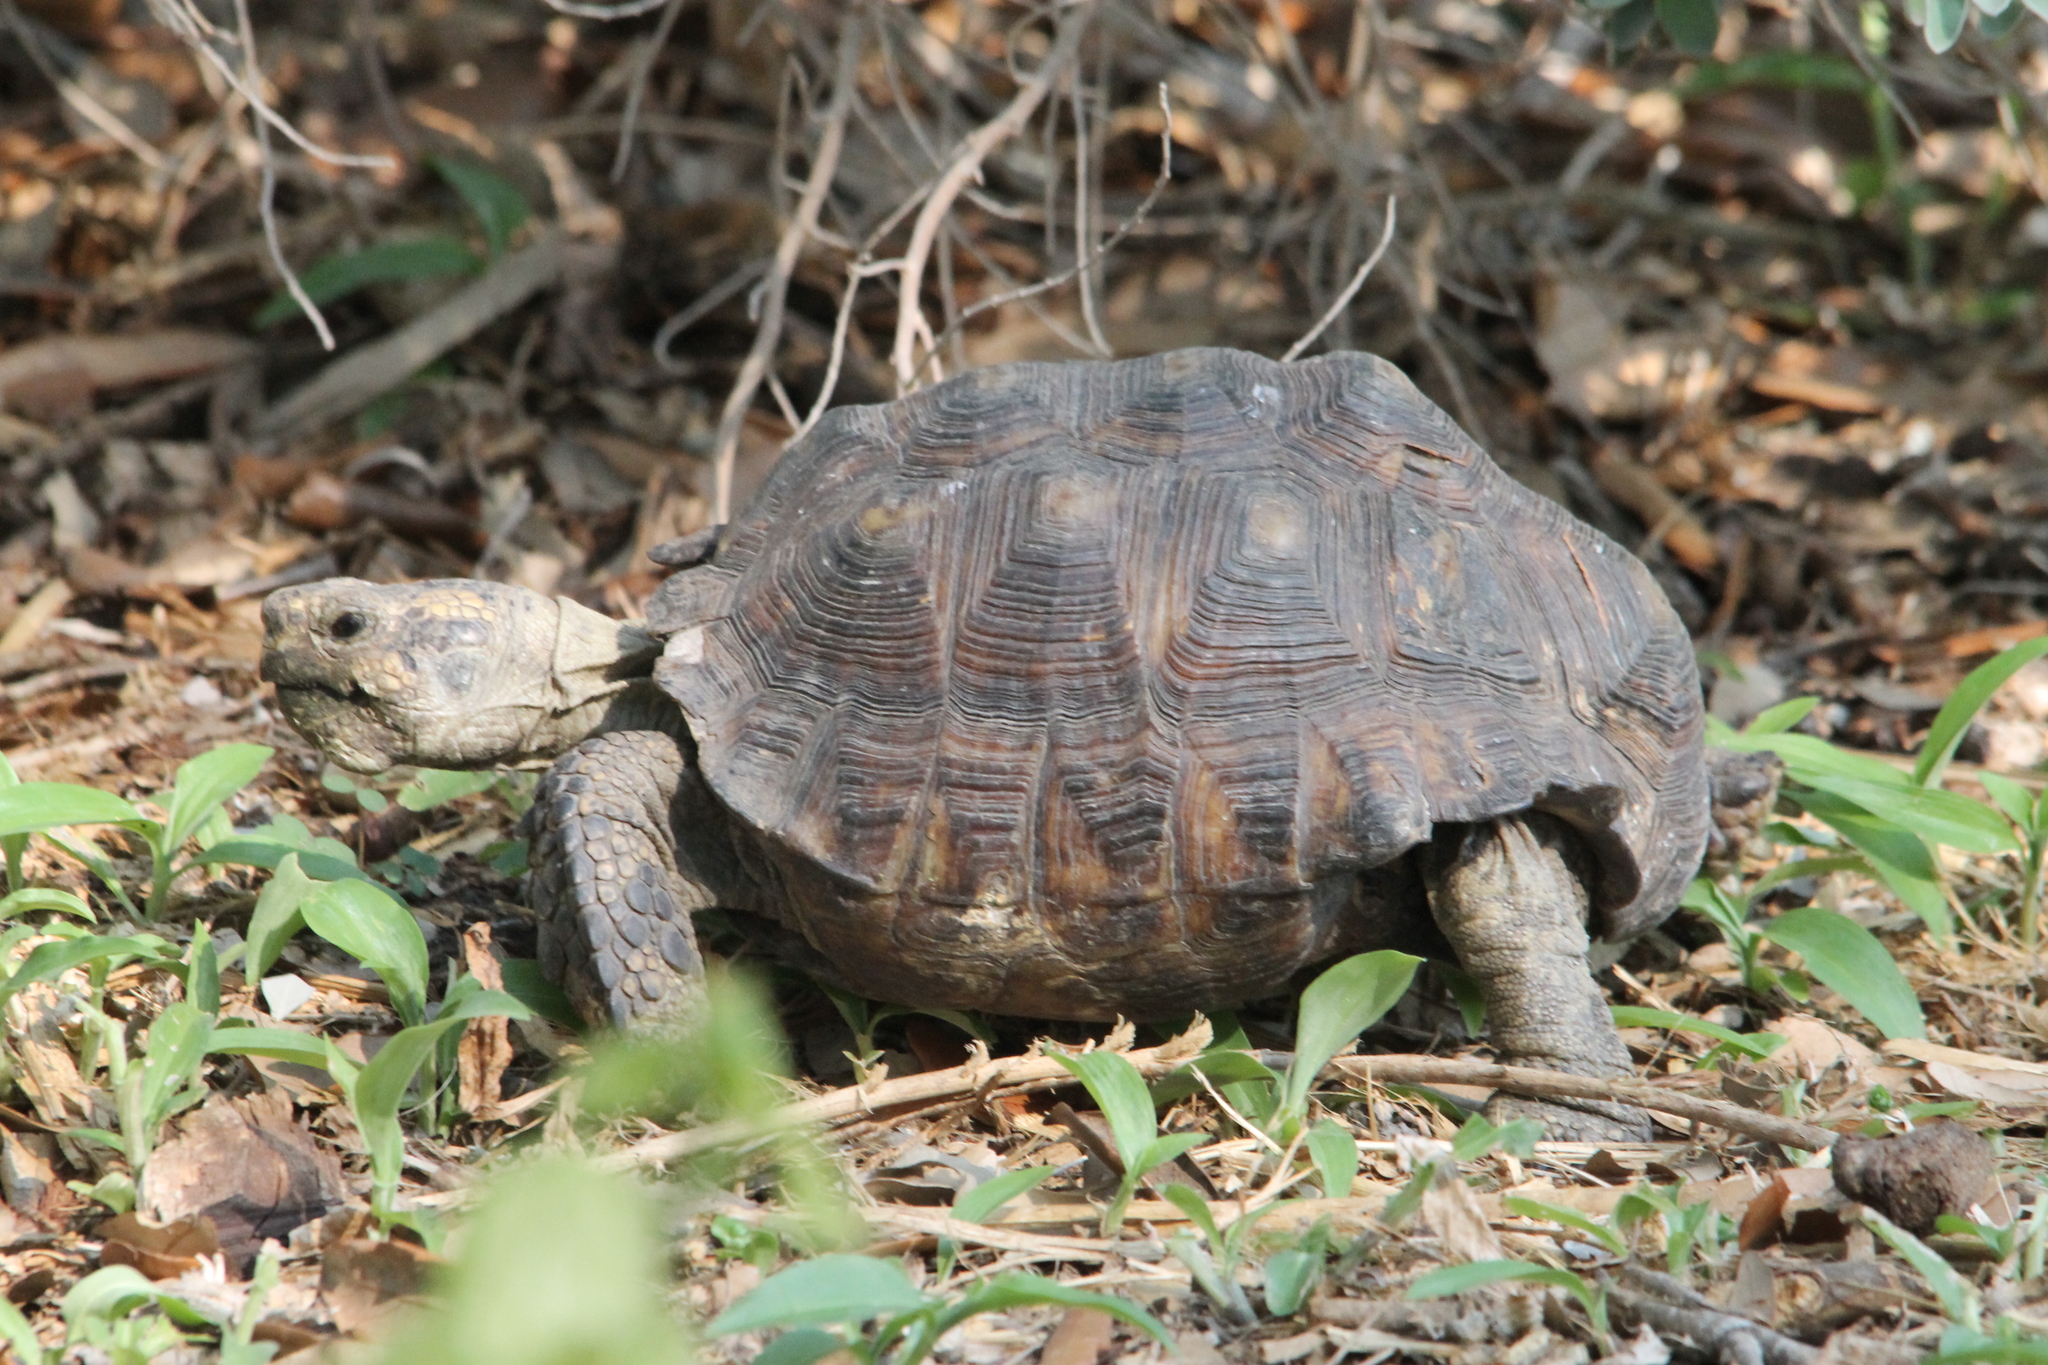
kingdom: Animalia
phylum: Chordata
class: Testudines
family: Testudinidae
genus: Gopherus
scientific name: Gopherus berlandieri
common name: Texas (gopher )tortoise
